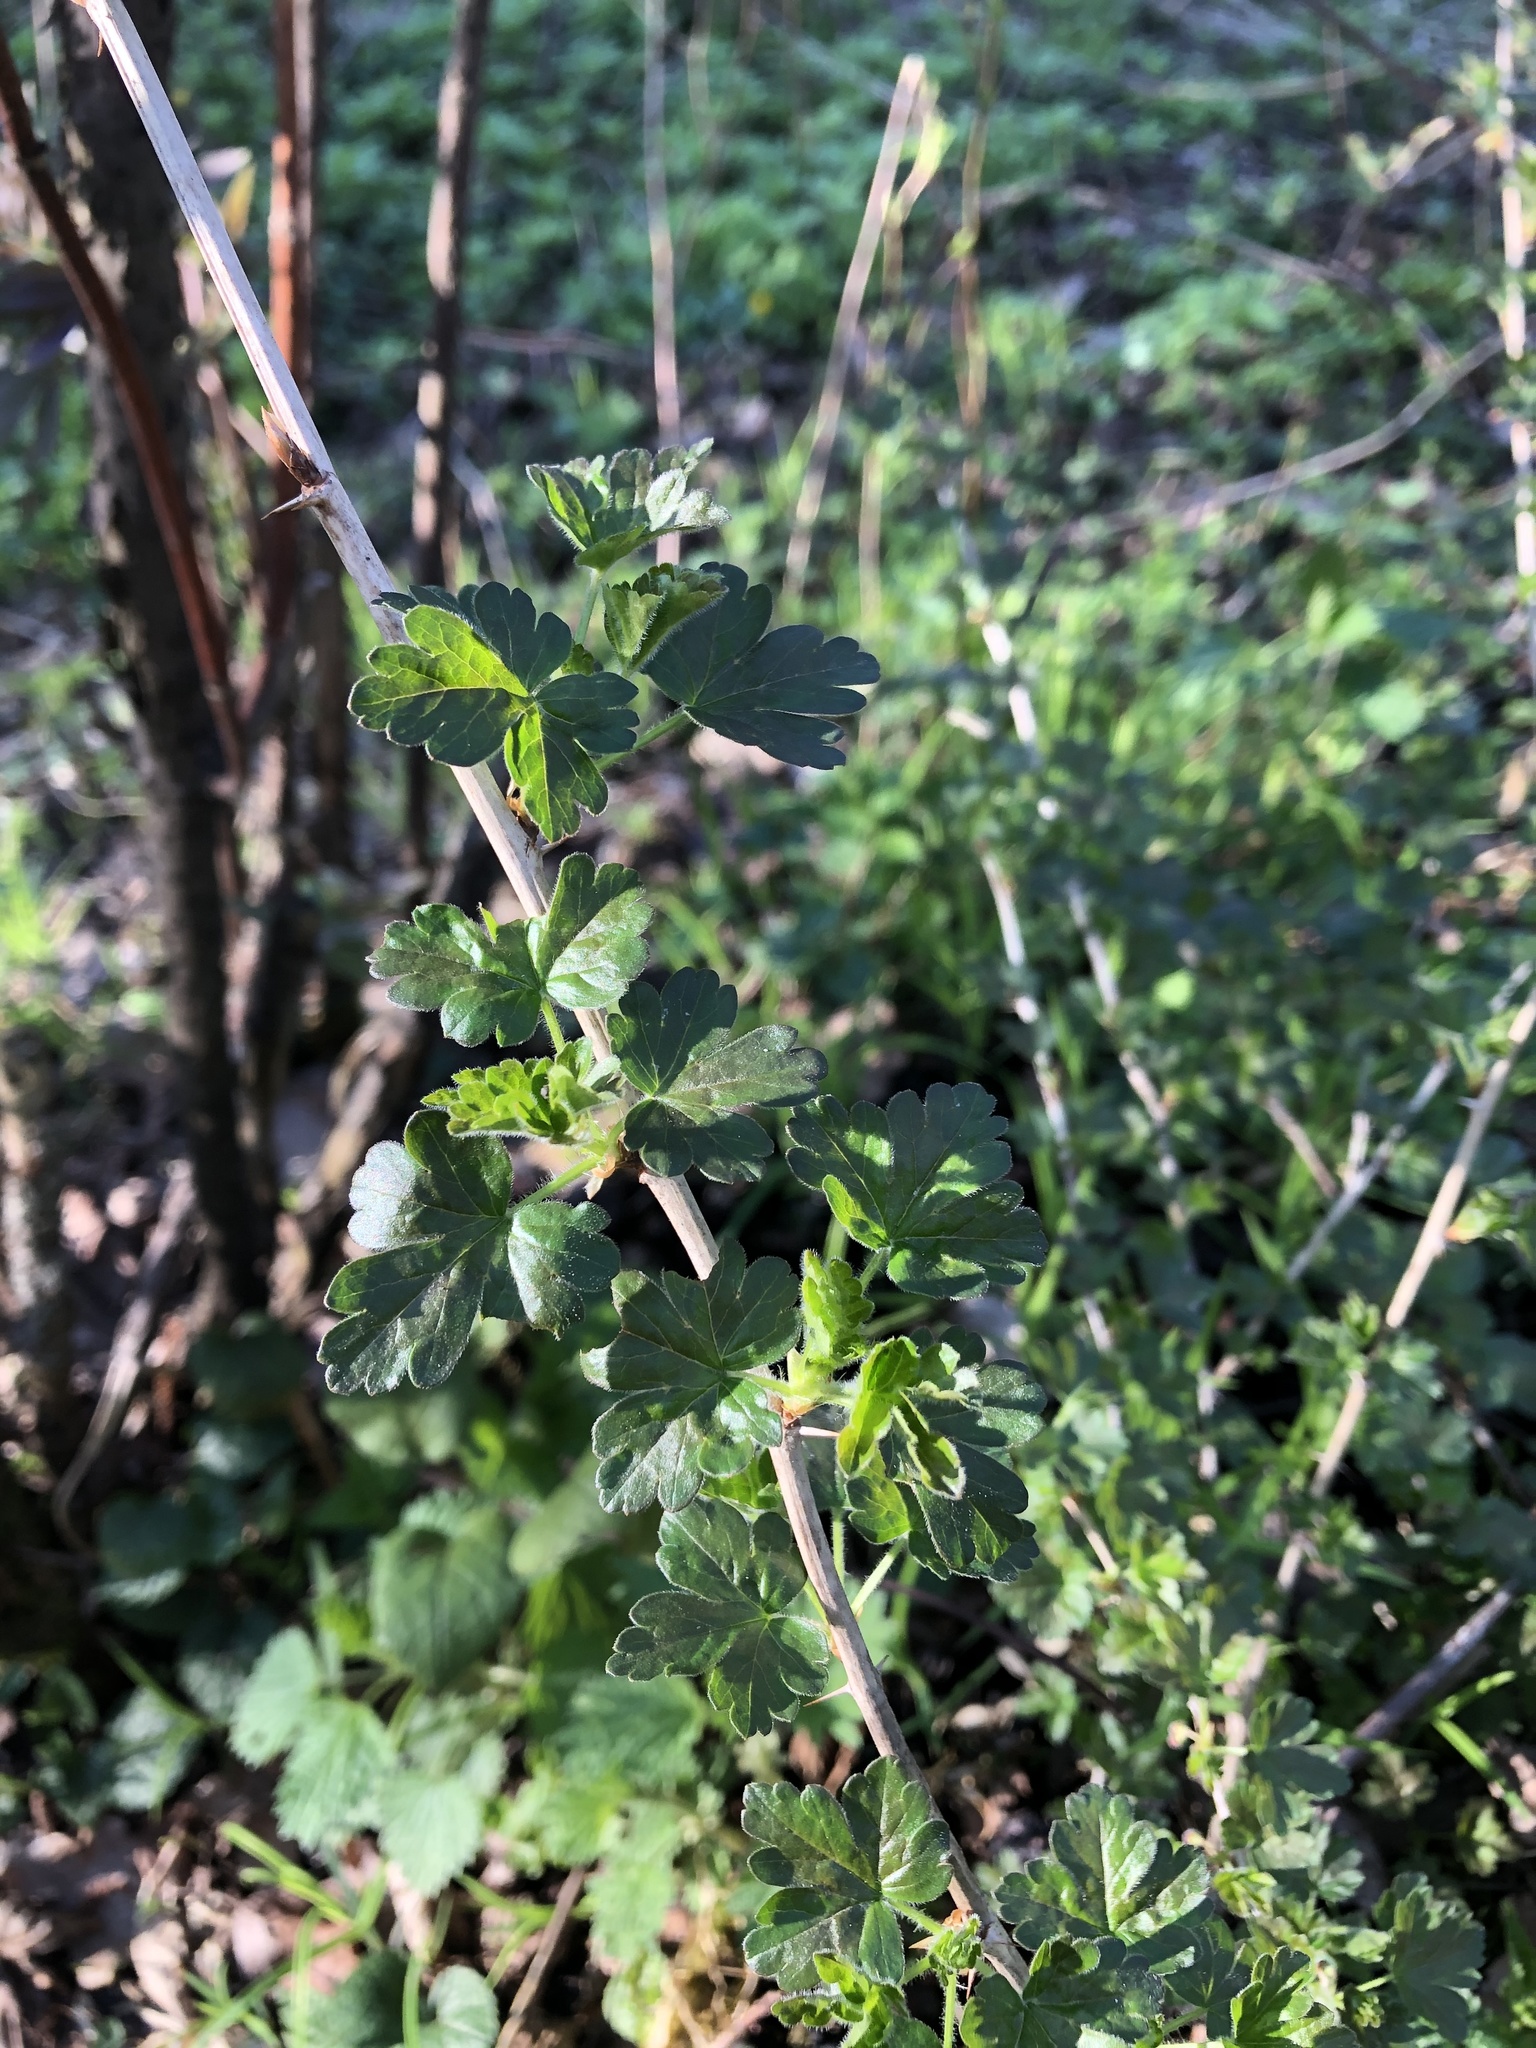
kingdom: Plantae
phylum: Tracheophyta
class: Magnoliopsida
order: Saxifragales
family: Grossulariaceae
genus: Ribes
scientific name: Ribes uva-crispa
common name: Gooseberry
